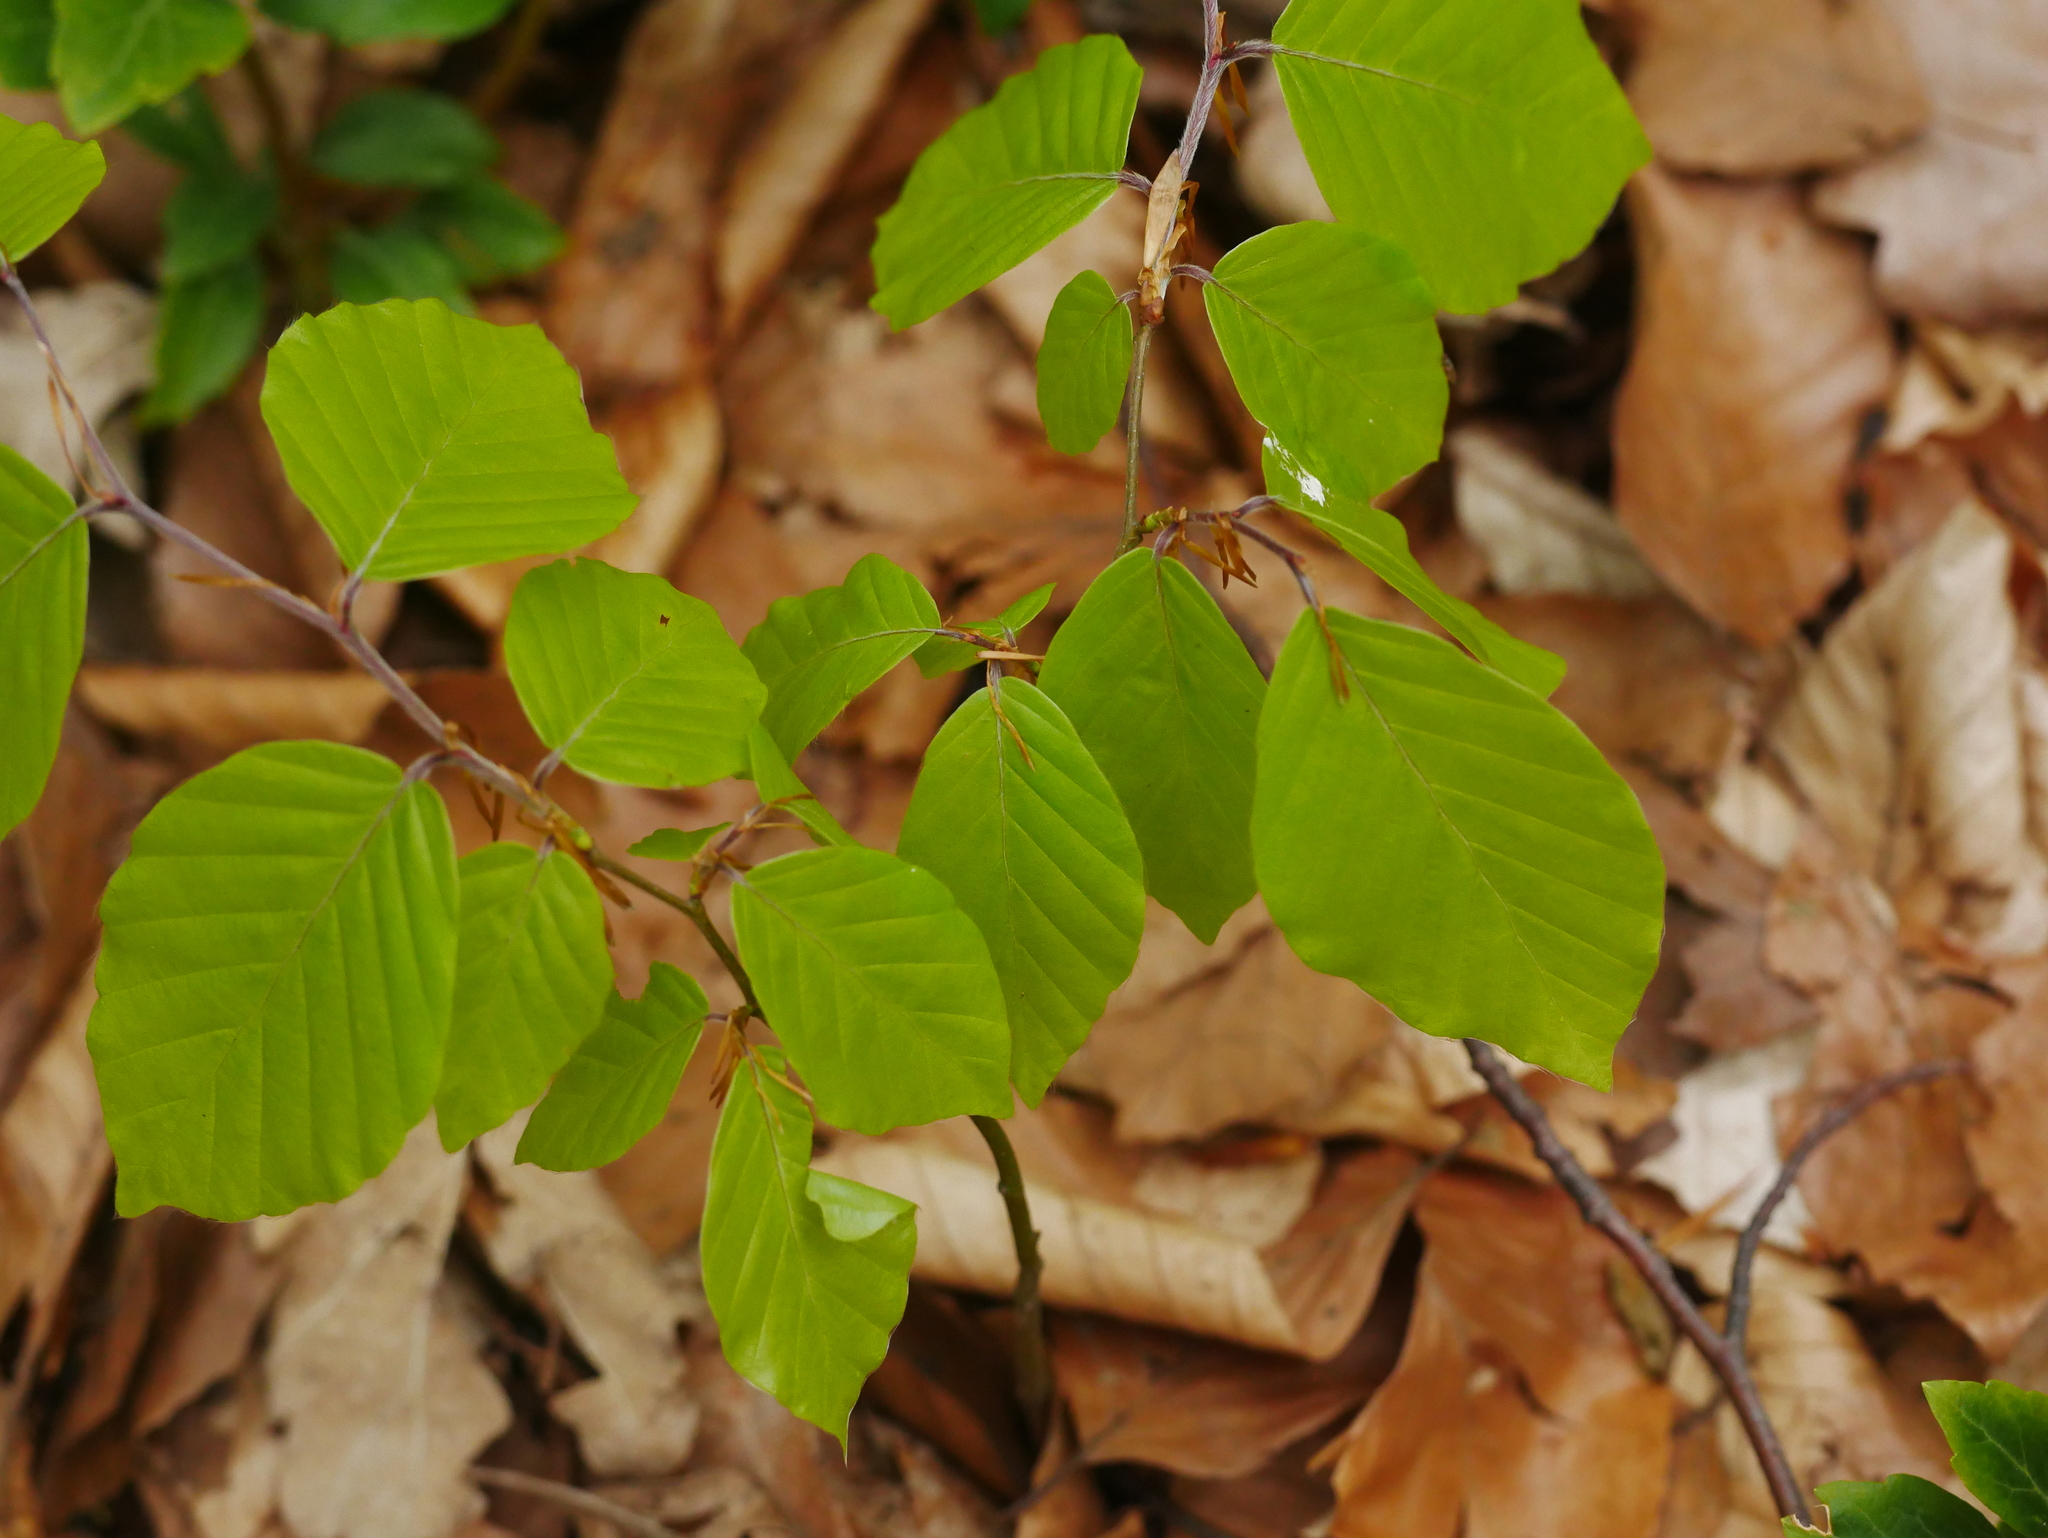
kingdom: Plantae
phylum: Tracheophyta
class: Magnoliopsida
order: Fagales
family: Fagaceae
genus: Fagus
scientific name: Fagus sylvatica
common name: Beech
